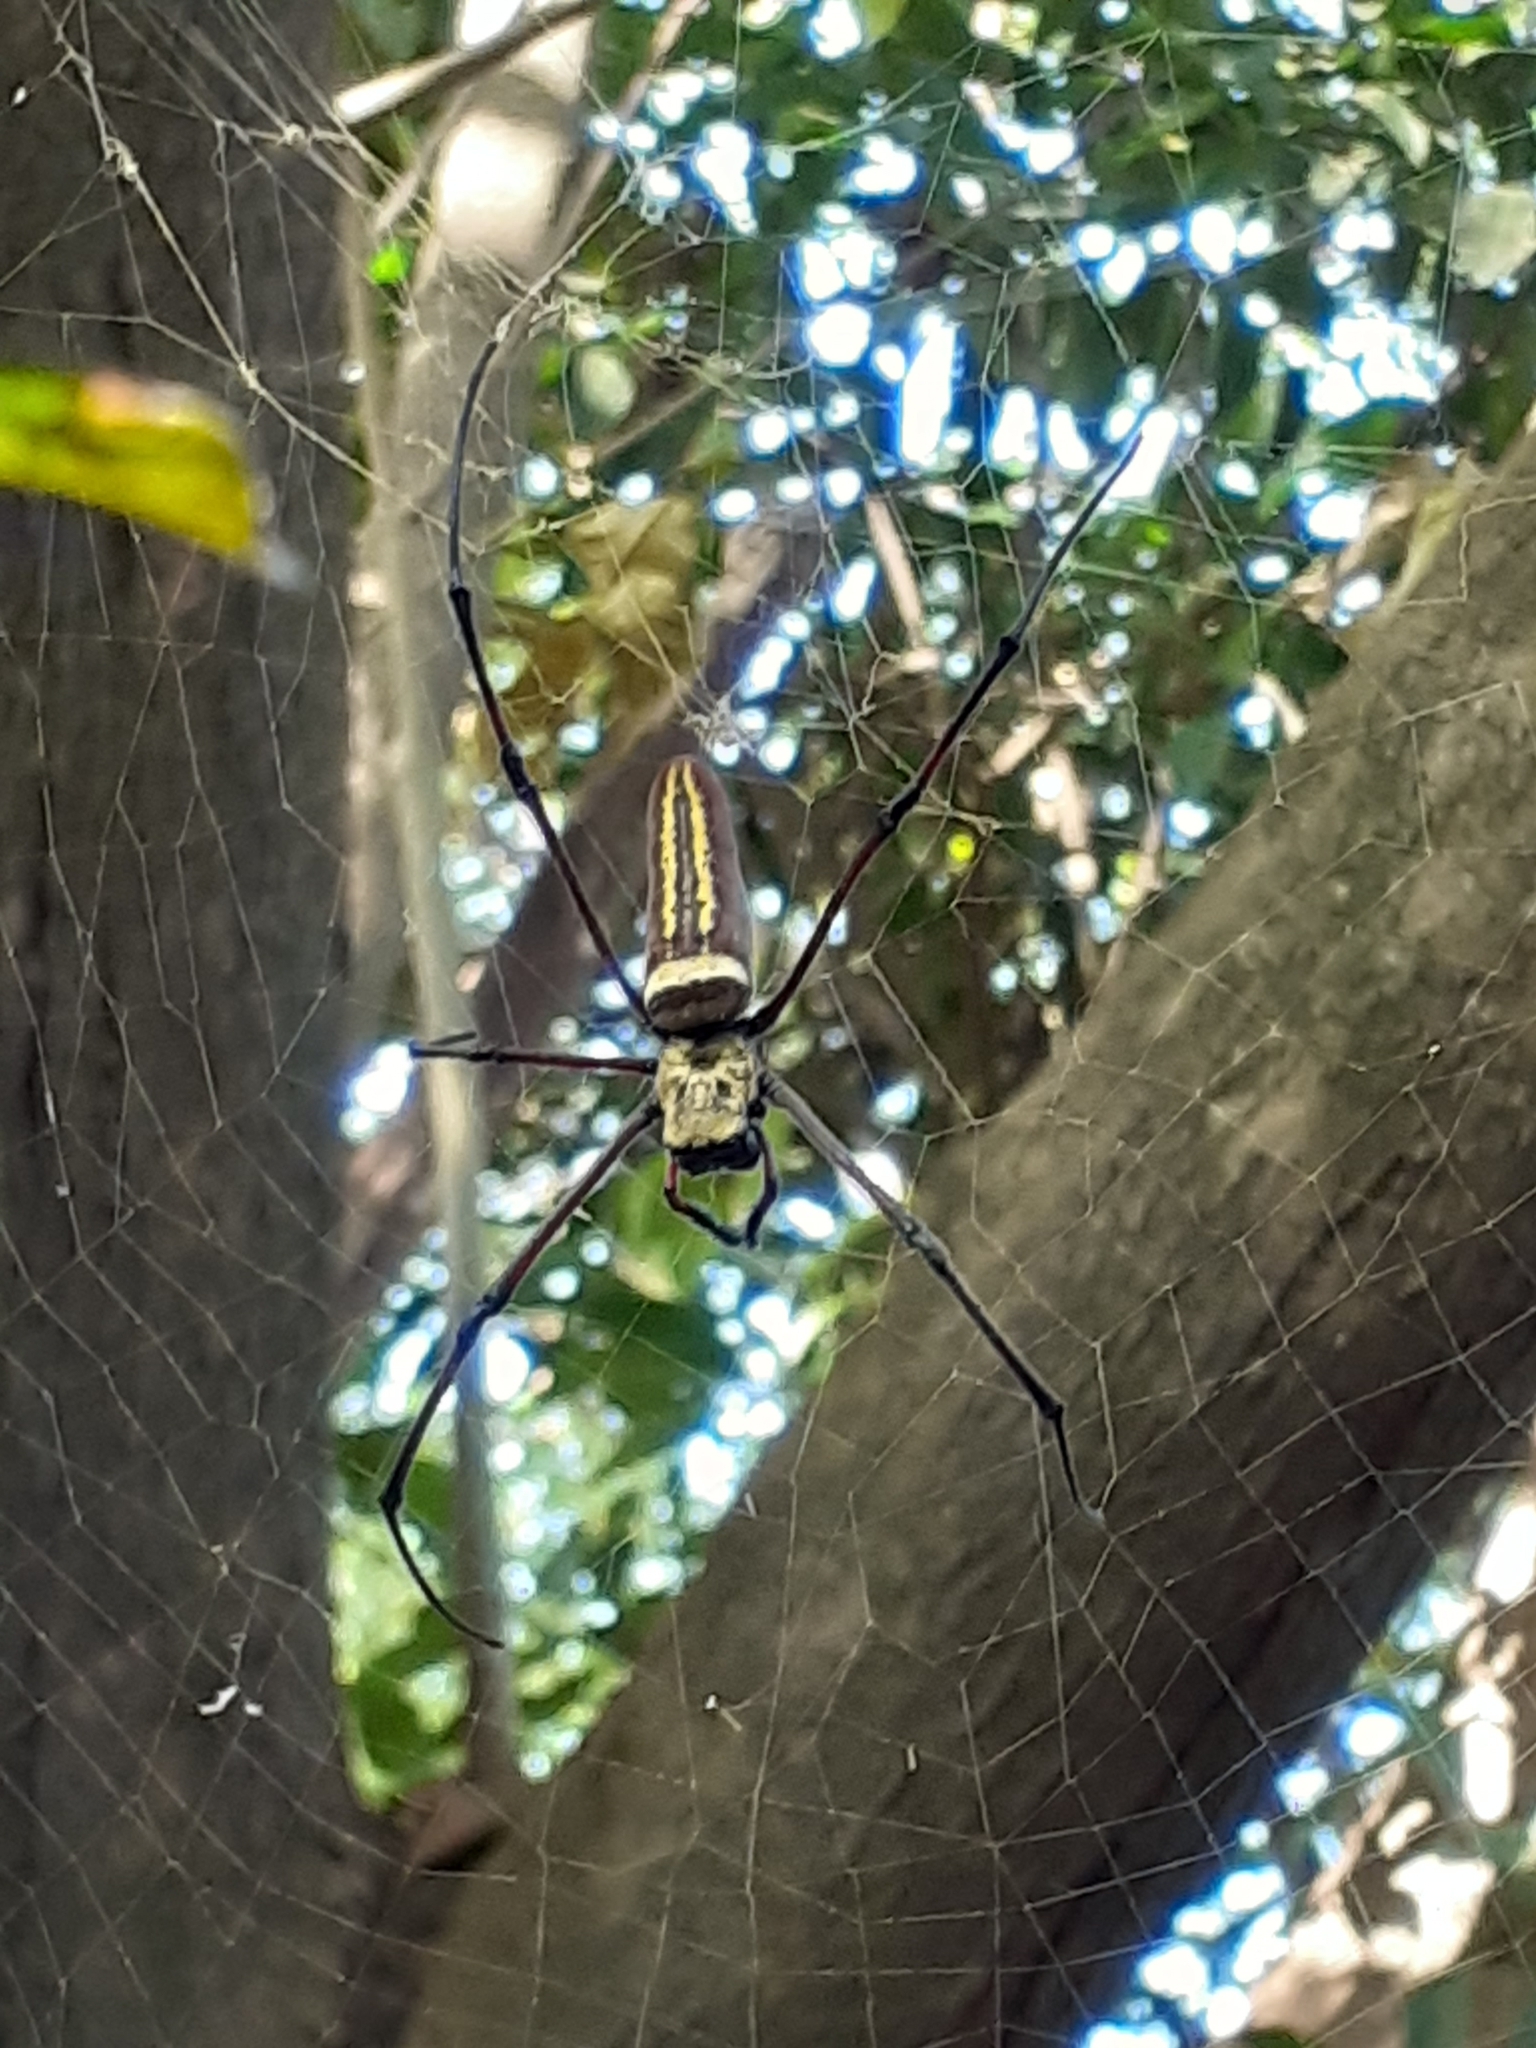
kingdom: Animalia
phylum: Arthropoda
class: Arachnida
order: Araneae
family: Araneidae
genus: Nephila
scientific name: Nephila pilipes
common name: Giant golden orb weaver
